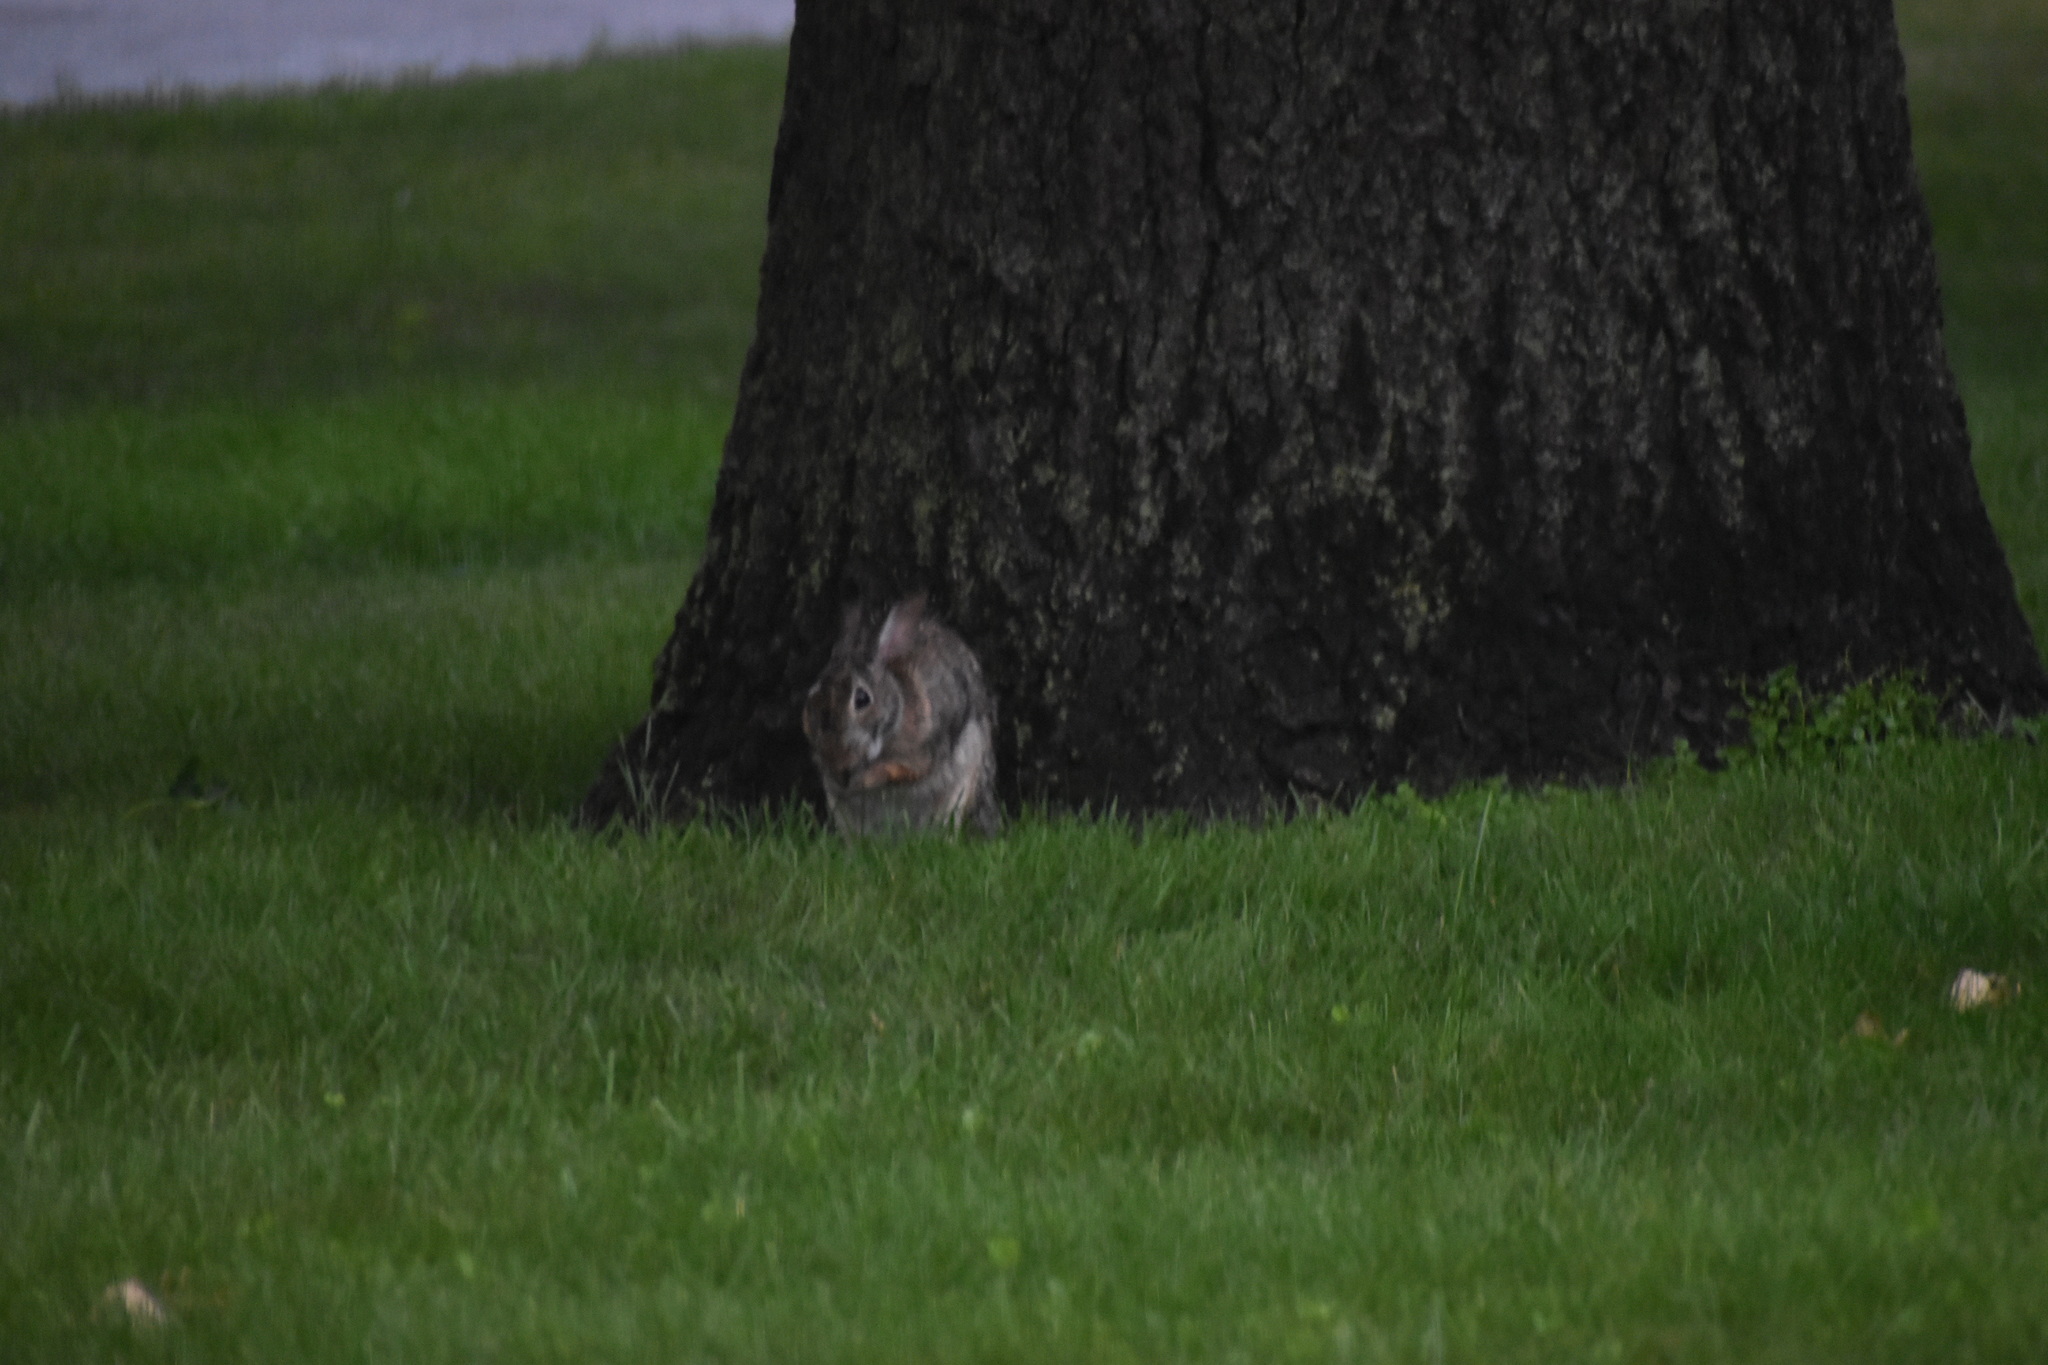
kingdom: Animalia
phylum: Chordata
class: Mammalia
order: Lagomorpha
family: Leporidae
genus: Sylvilagus
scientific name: Sylvilagus floridanus
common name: Eastern cottontail
